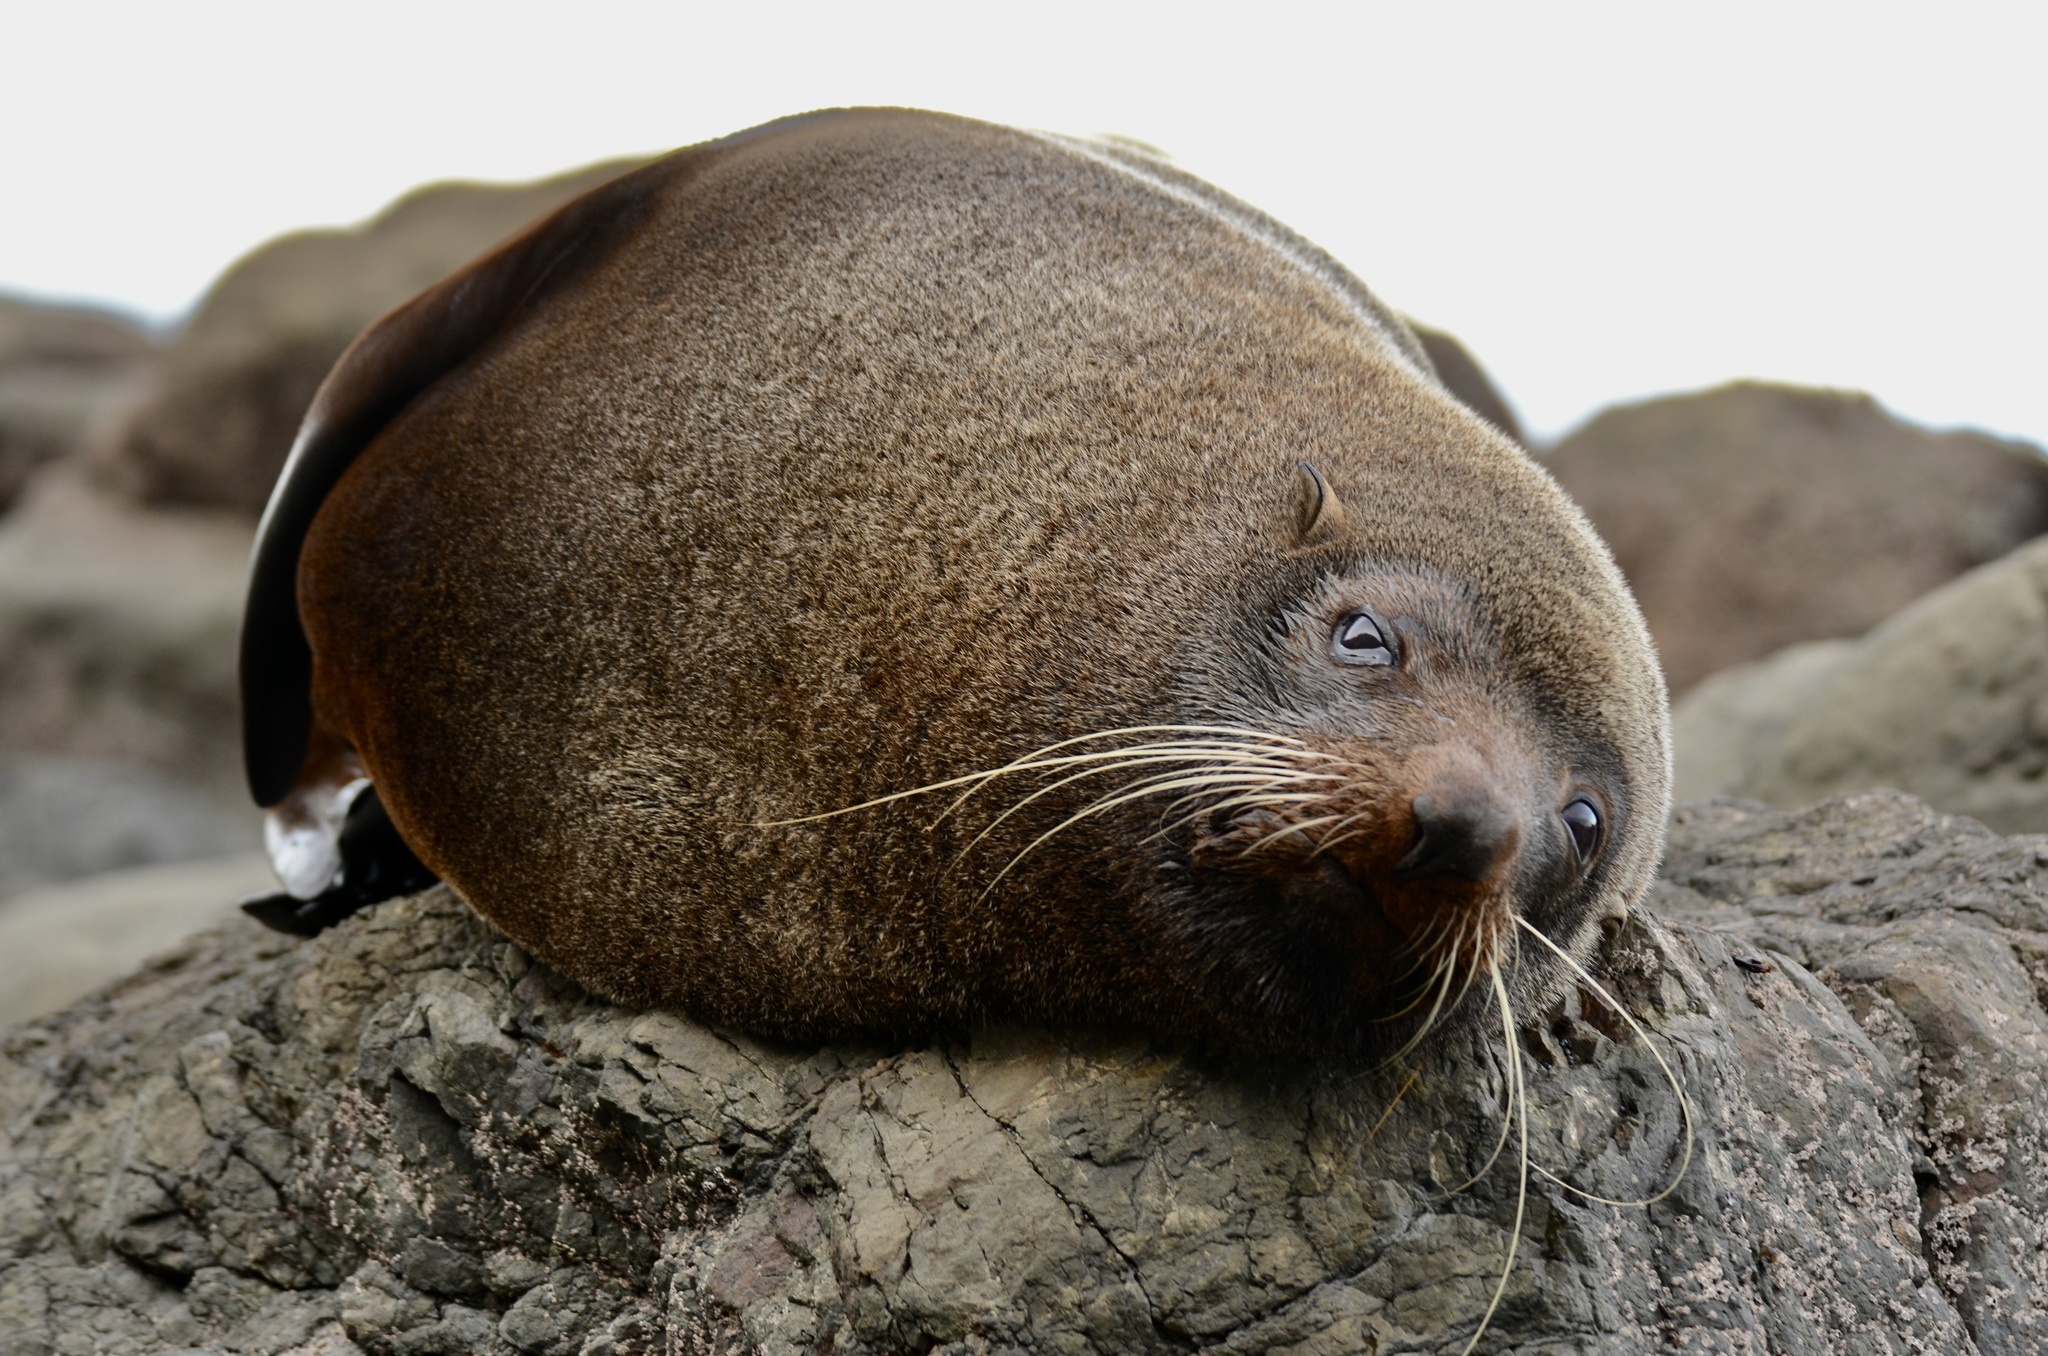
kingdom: Animalia
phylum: Chordata
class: Mammalia
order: Carnivora
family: Otariidae
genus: Arctocephalus
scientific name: Arctocephalus forsteri
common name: New zealand fur seal
